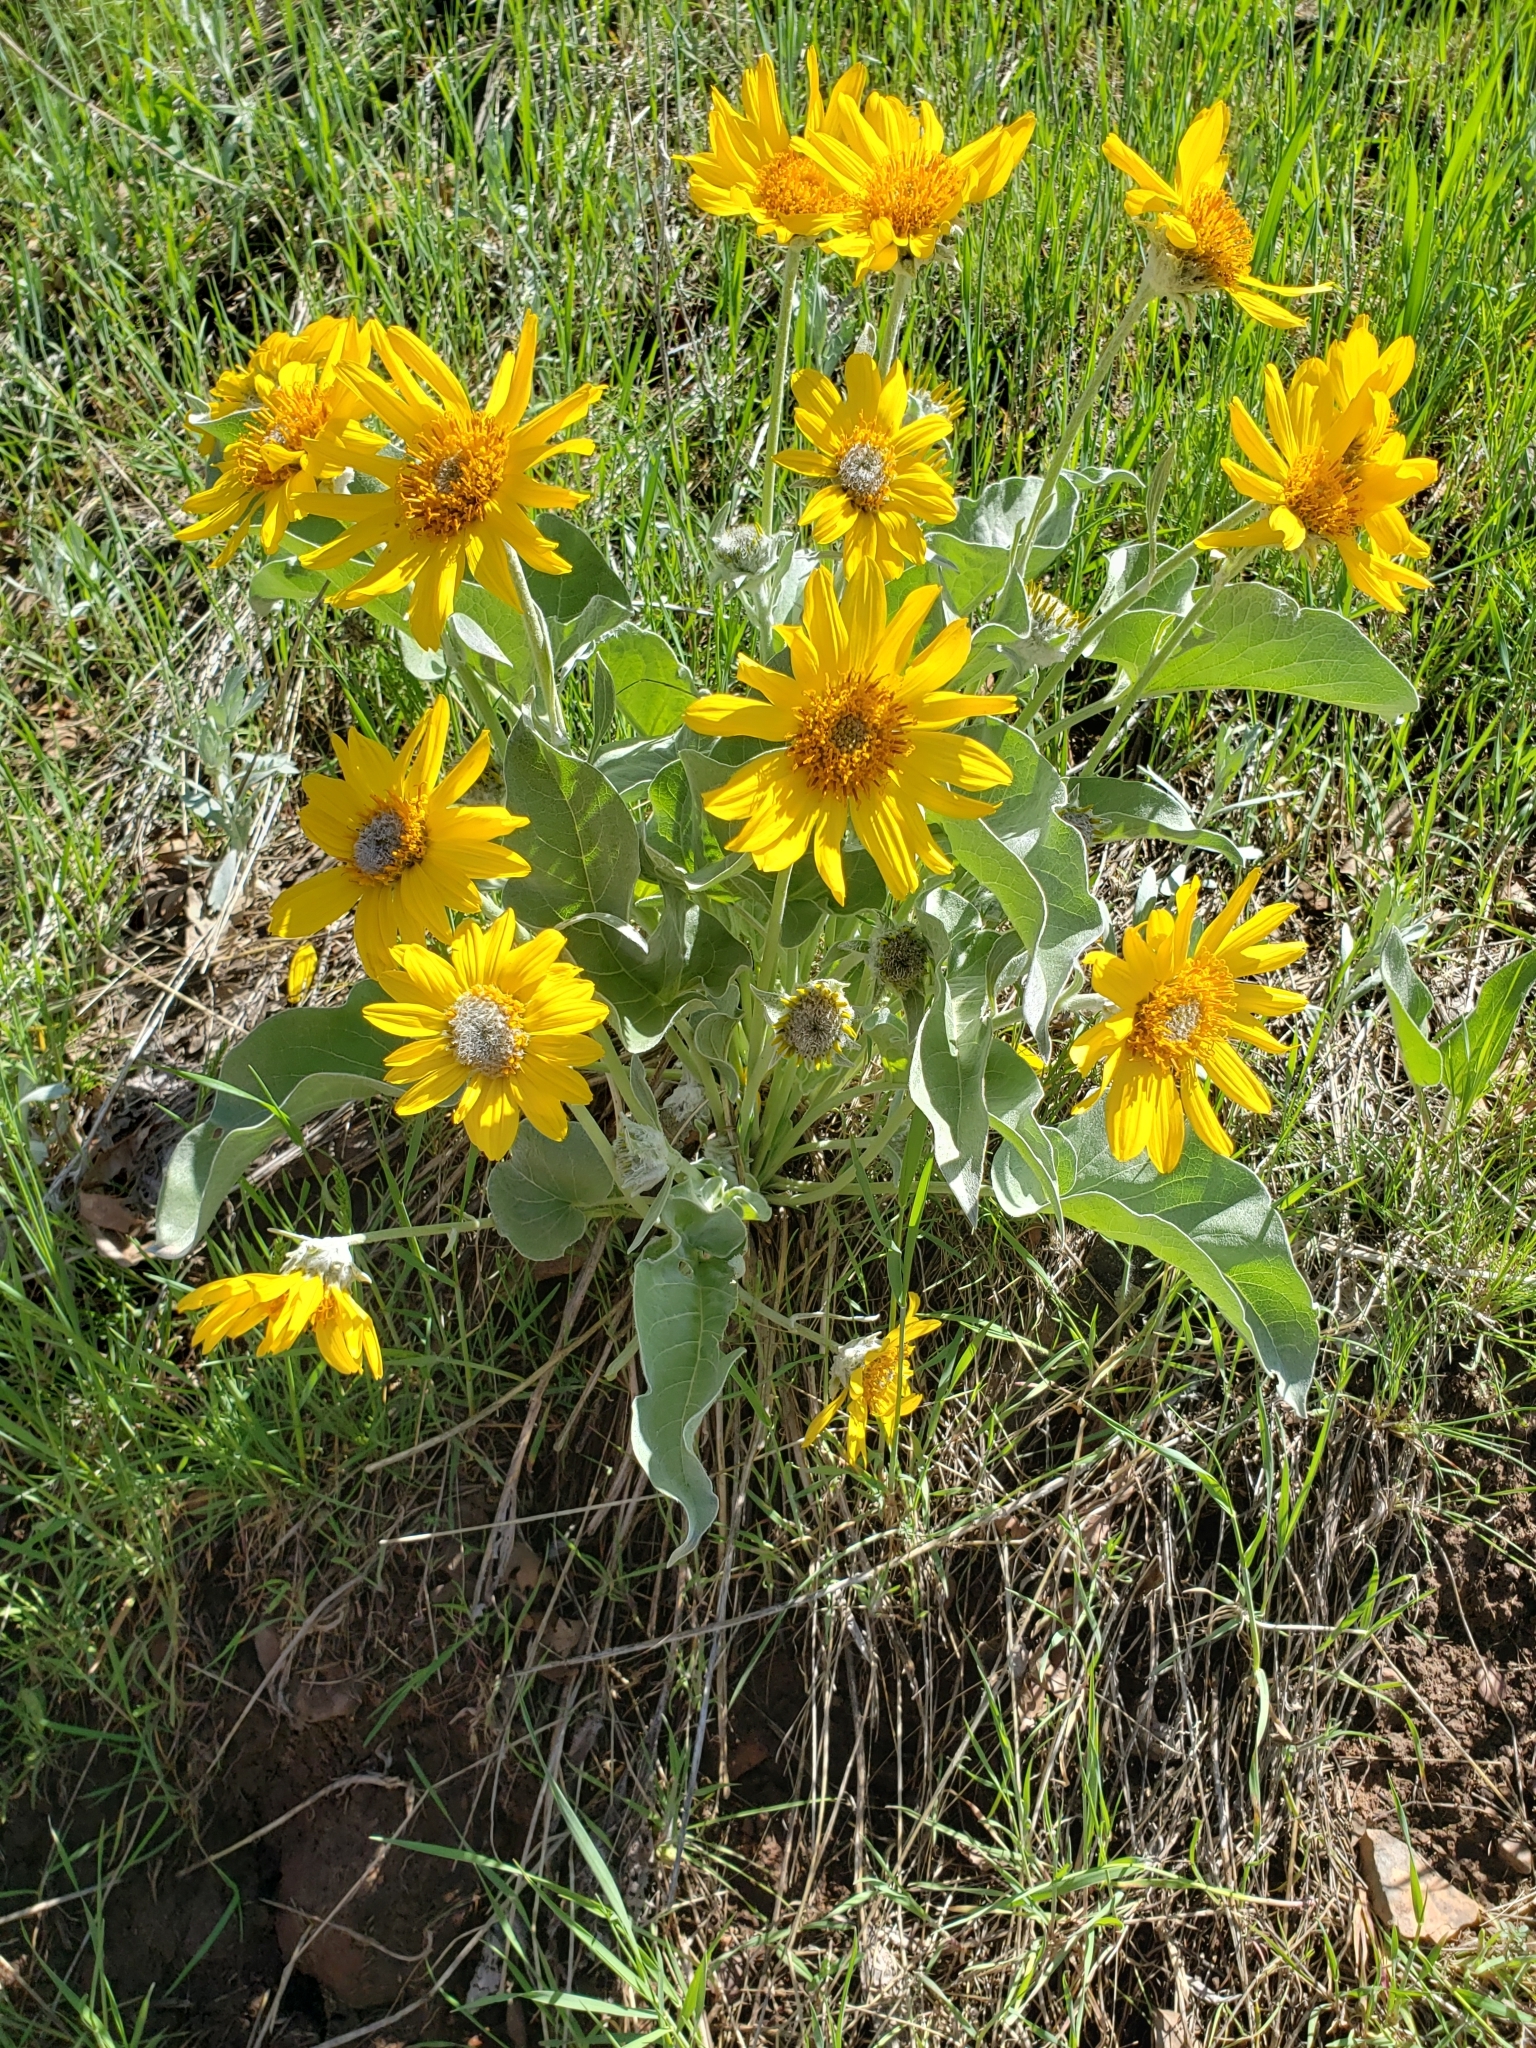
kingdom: Plantae
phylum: Tracheophyta
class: Magnoliopsida
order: Asterales
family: Asteraceae
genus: Wyethia
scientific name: Wyethia sagittata
